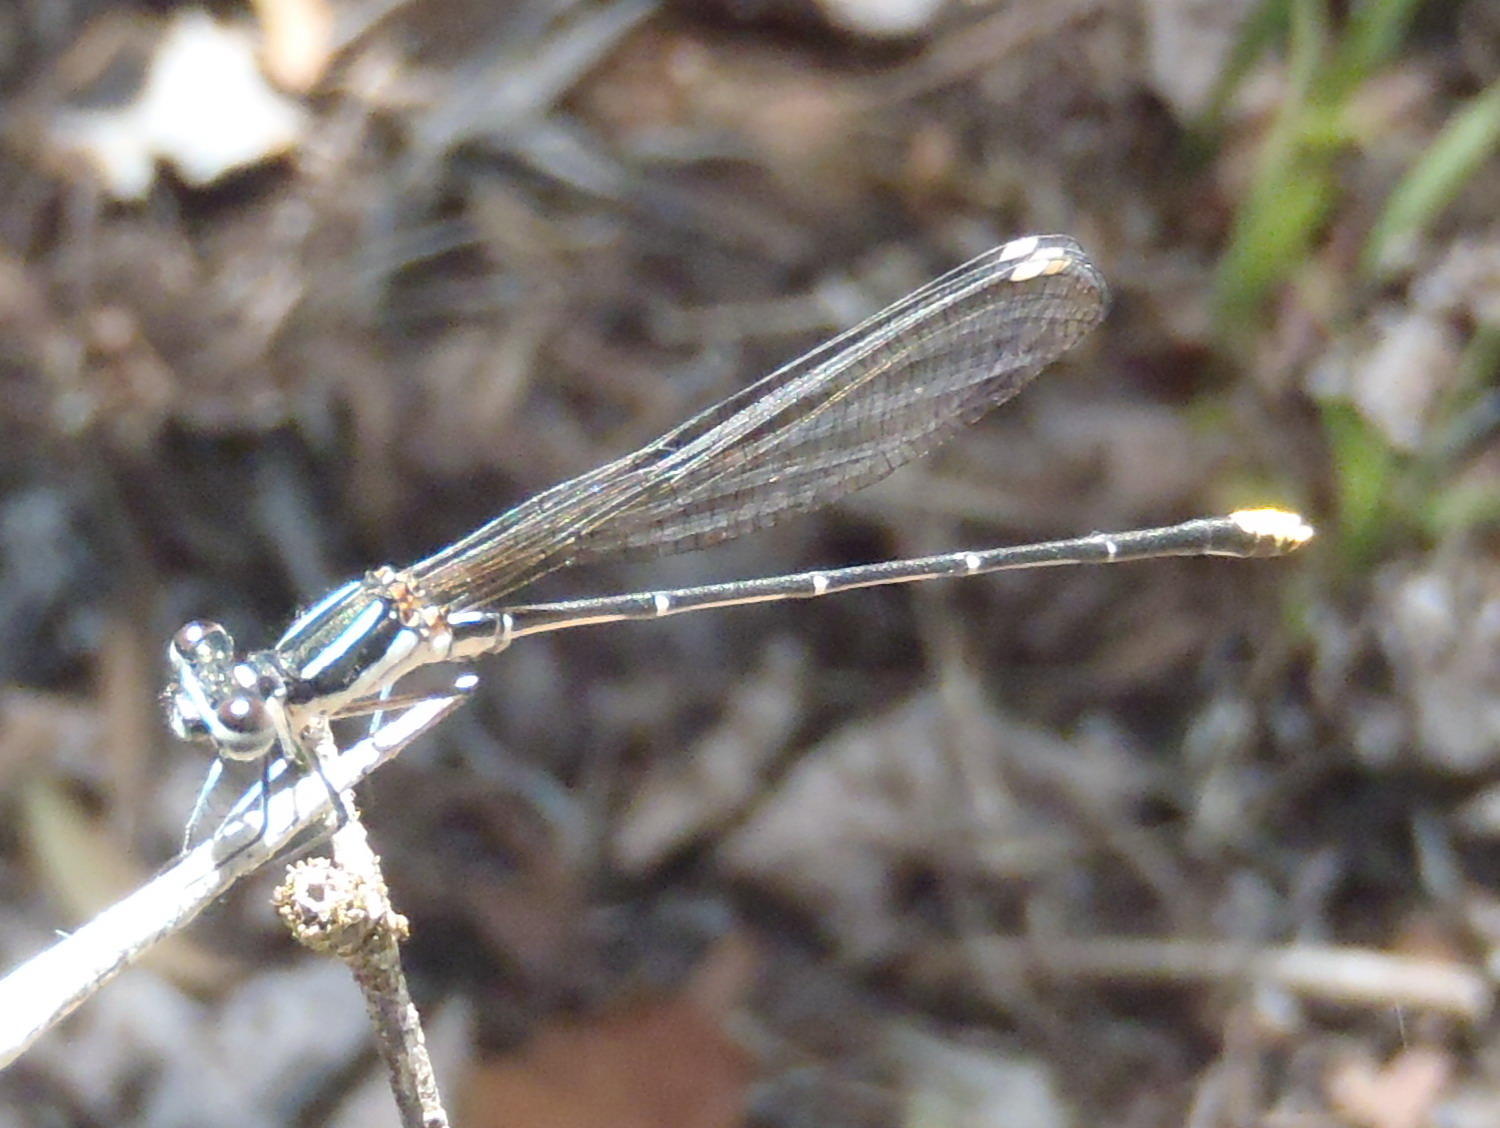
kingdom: Animalia
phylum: Arthropoda
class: Insecta
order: Odonata
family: Platycnemididae
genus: Allocnemis
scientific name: Allocnemis leucosticta
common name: Goldtail
